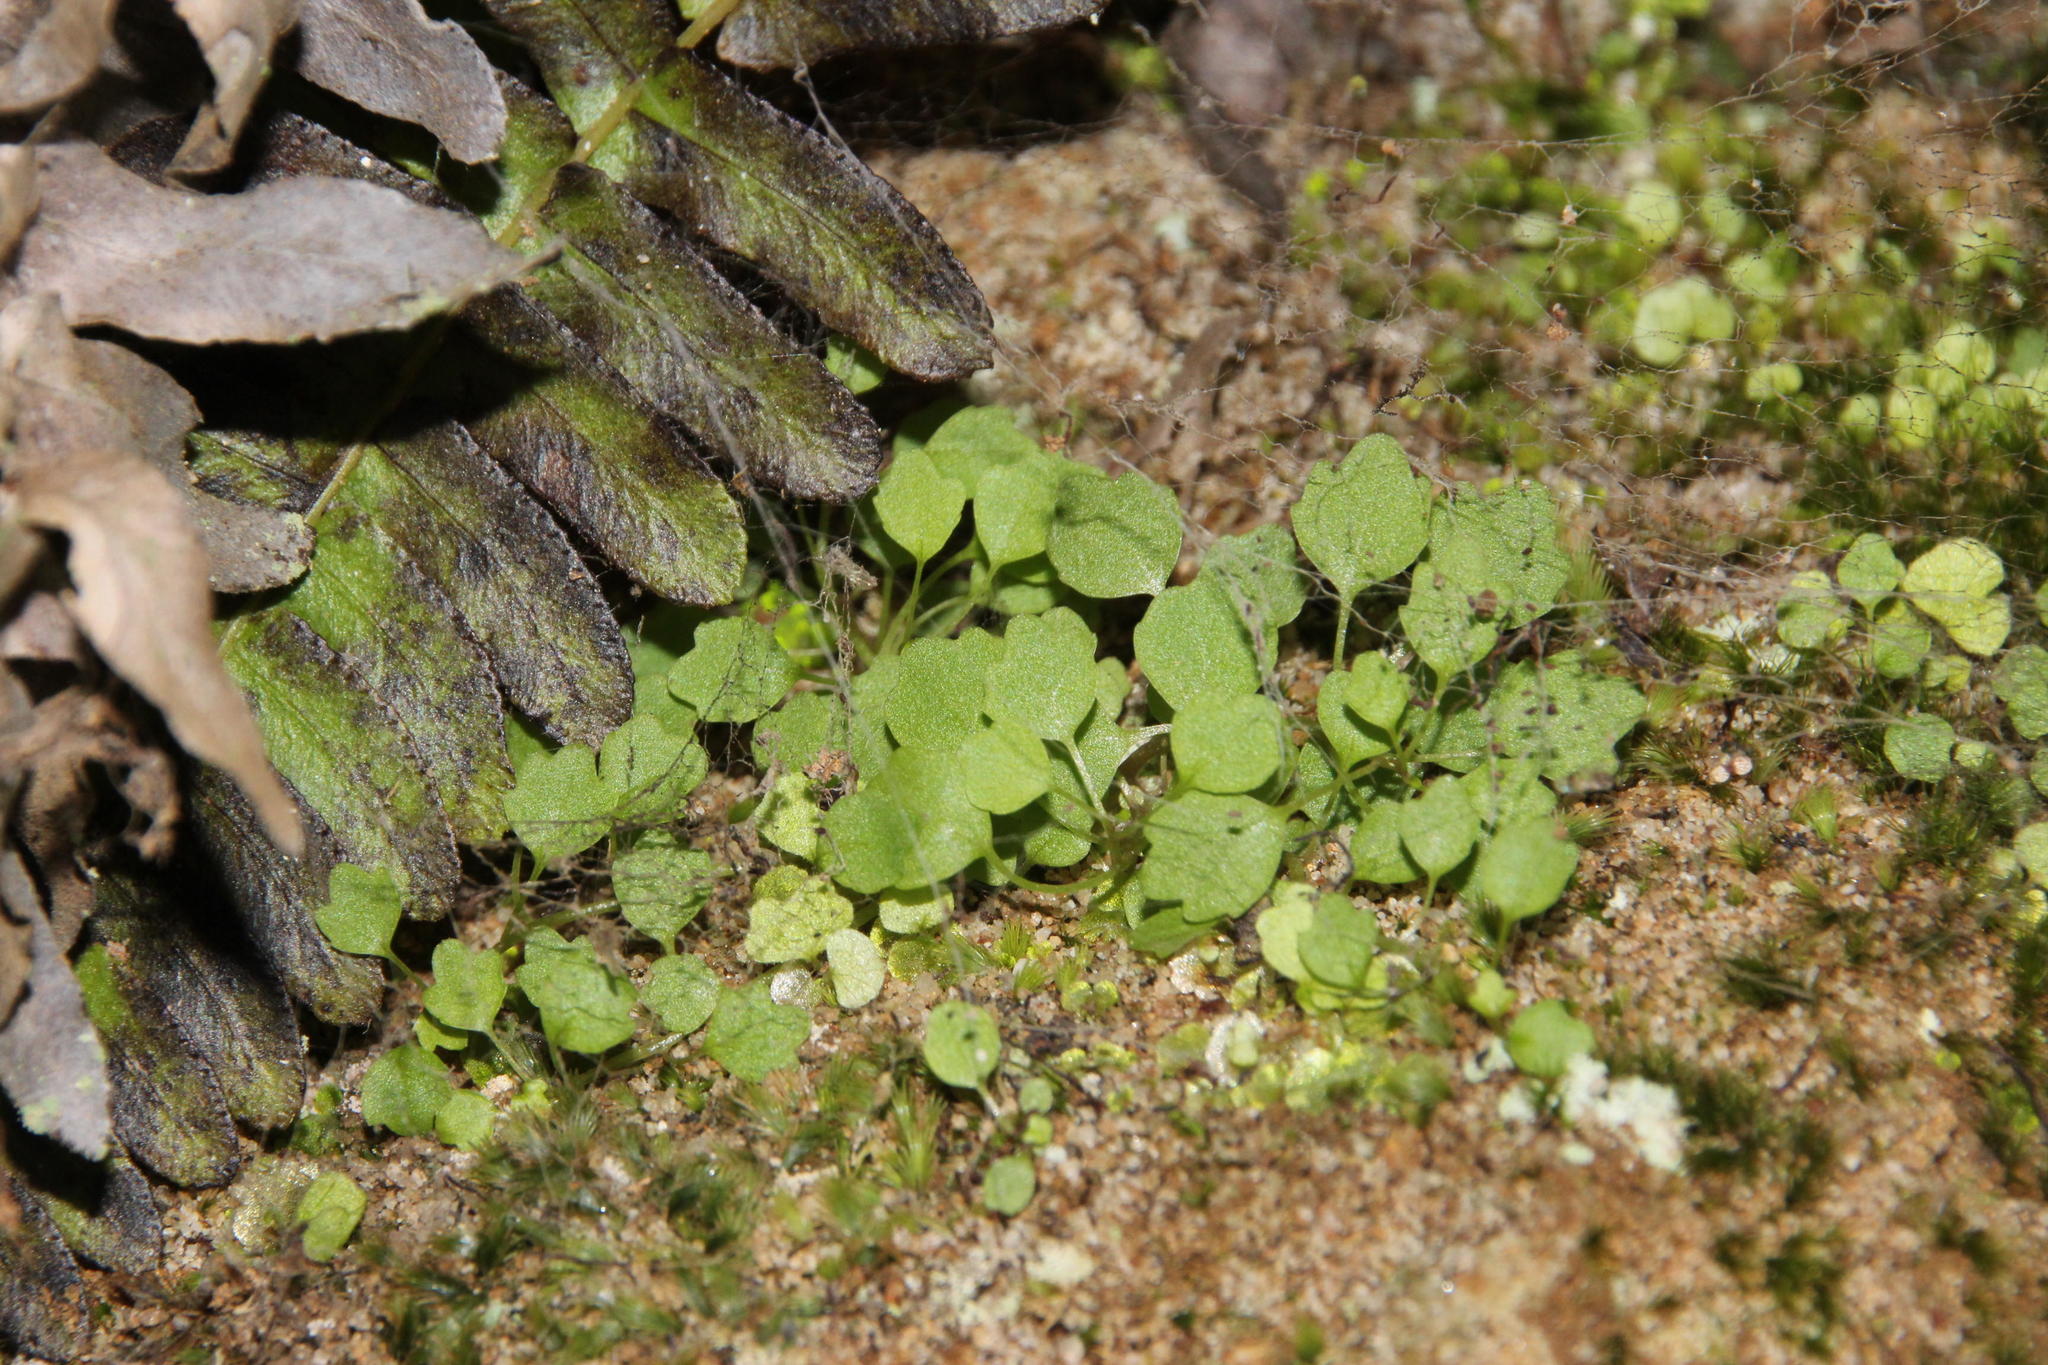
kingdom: Plantae
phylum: Tracheophyta
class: Magnoliopsida
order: Asterales
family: Campanulaceae
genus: Wimmerella
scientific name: Wimmerella pygmaea
